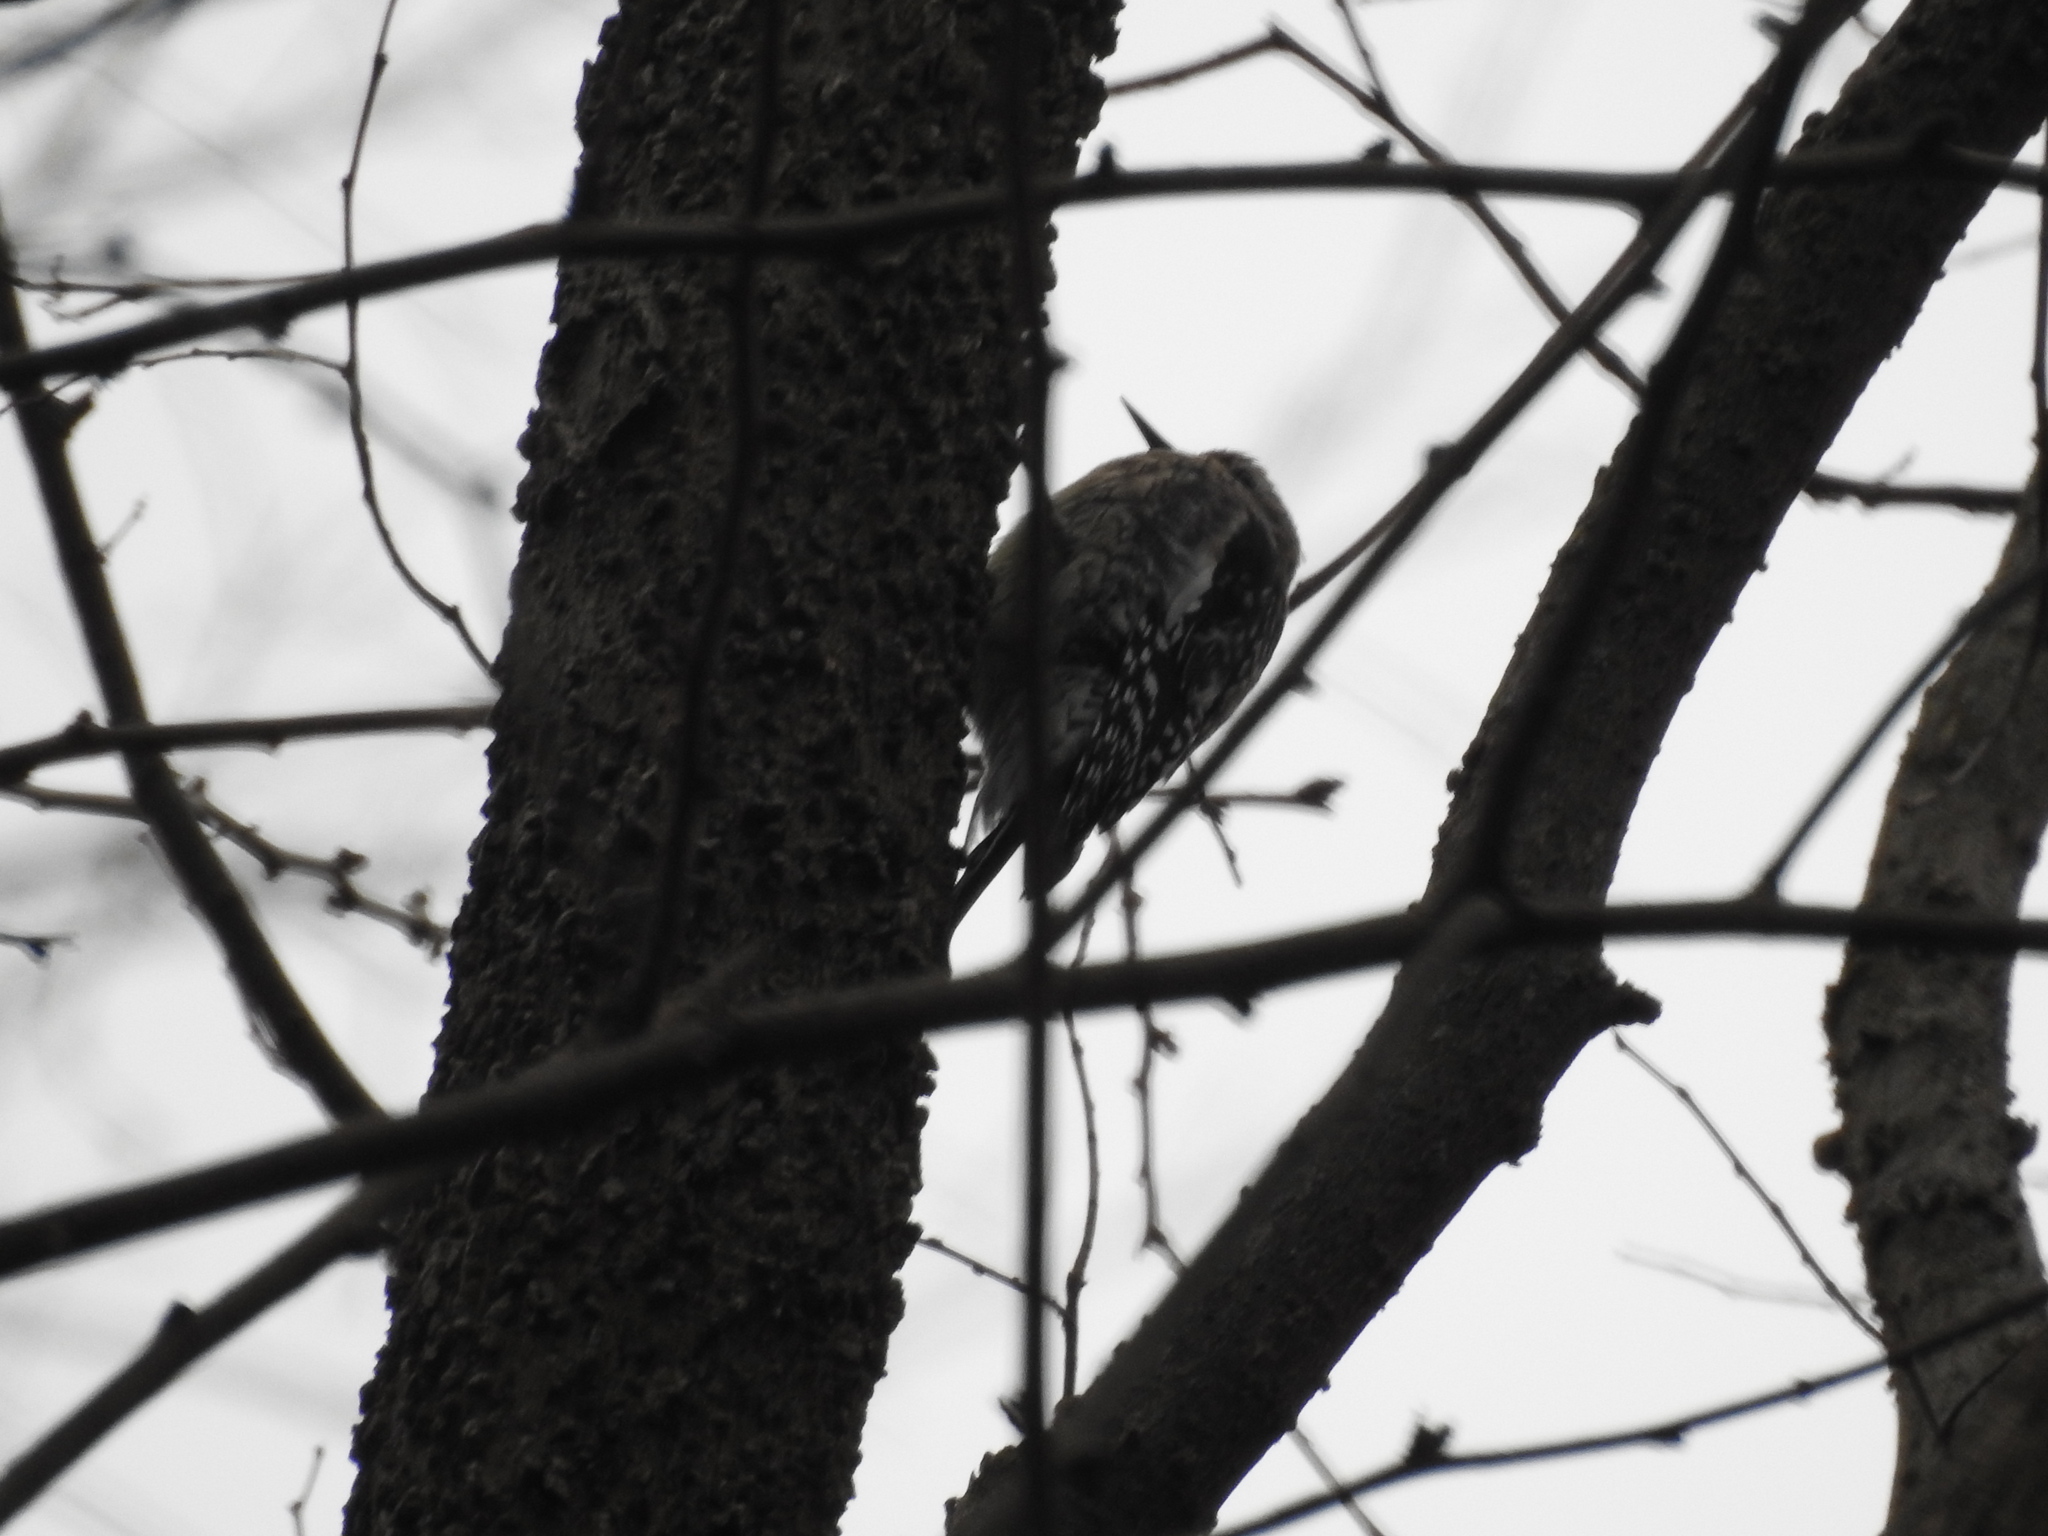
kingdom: Animalia
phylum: Chordata
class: Aves
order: Piciformes
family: Picidae
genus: Sphyrapicus
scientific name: Sphyrapicus varius
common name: Yellow-bellied sapsucker
